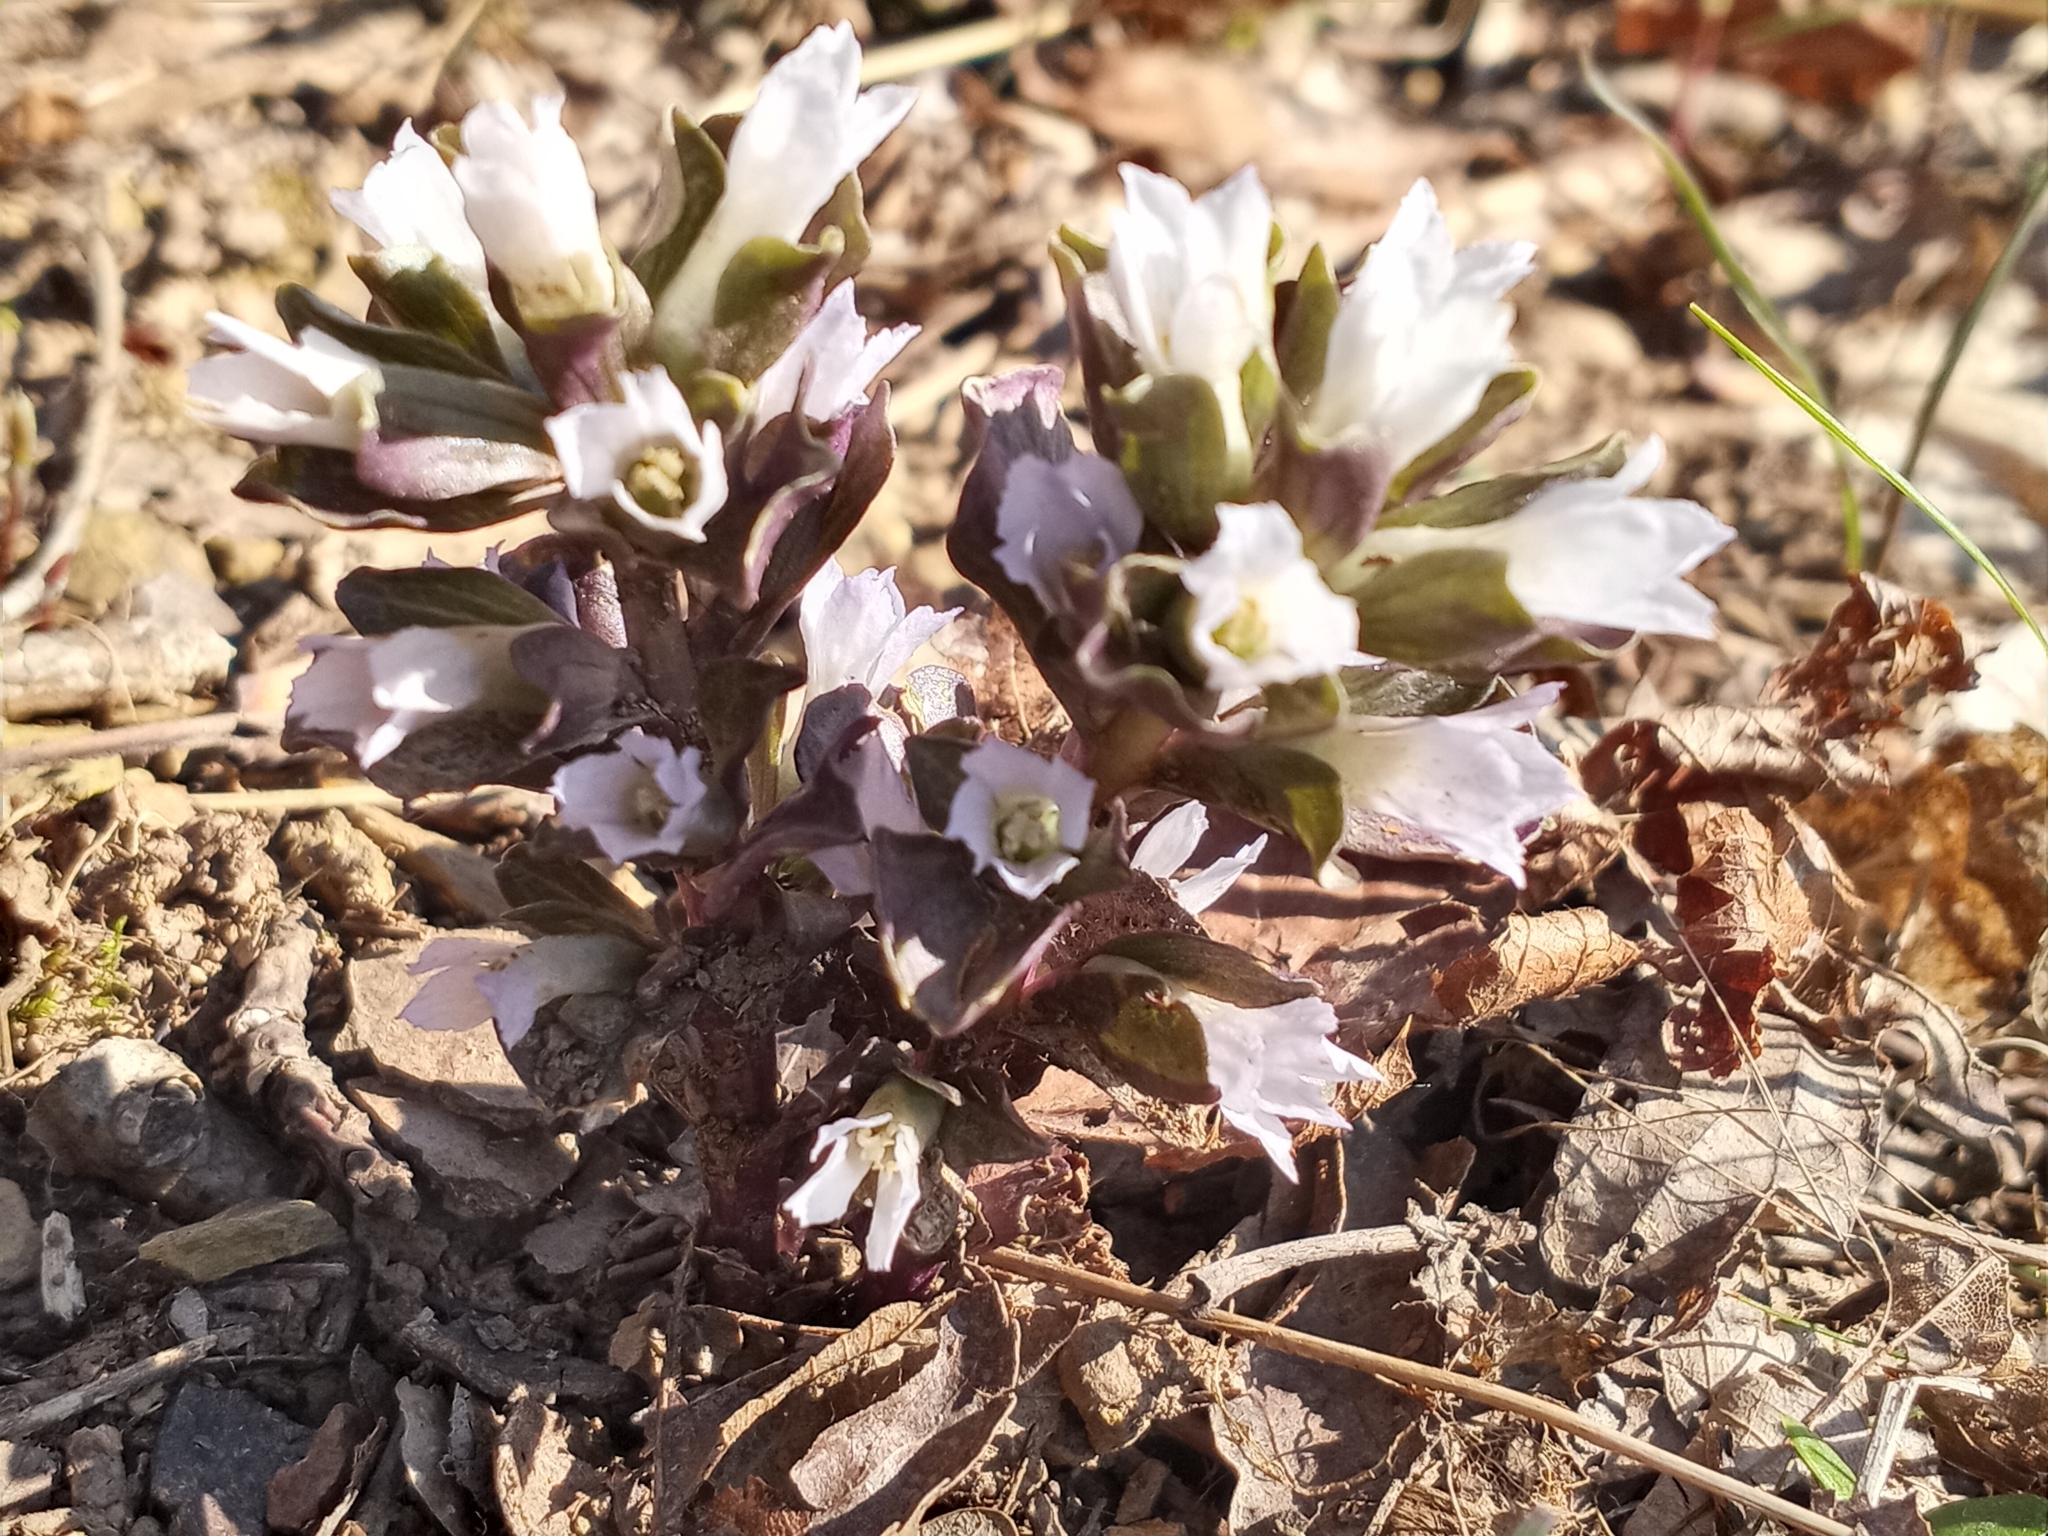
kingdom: Plantae
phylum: Tracheophyta
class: Magnoliopsida
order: Gentianales
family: Gentianaceae
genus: Obolaria
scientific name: Obolaria virginica
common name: Pennywort
